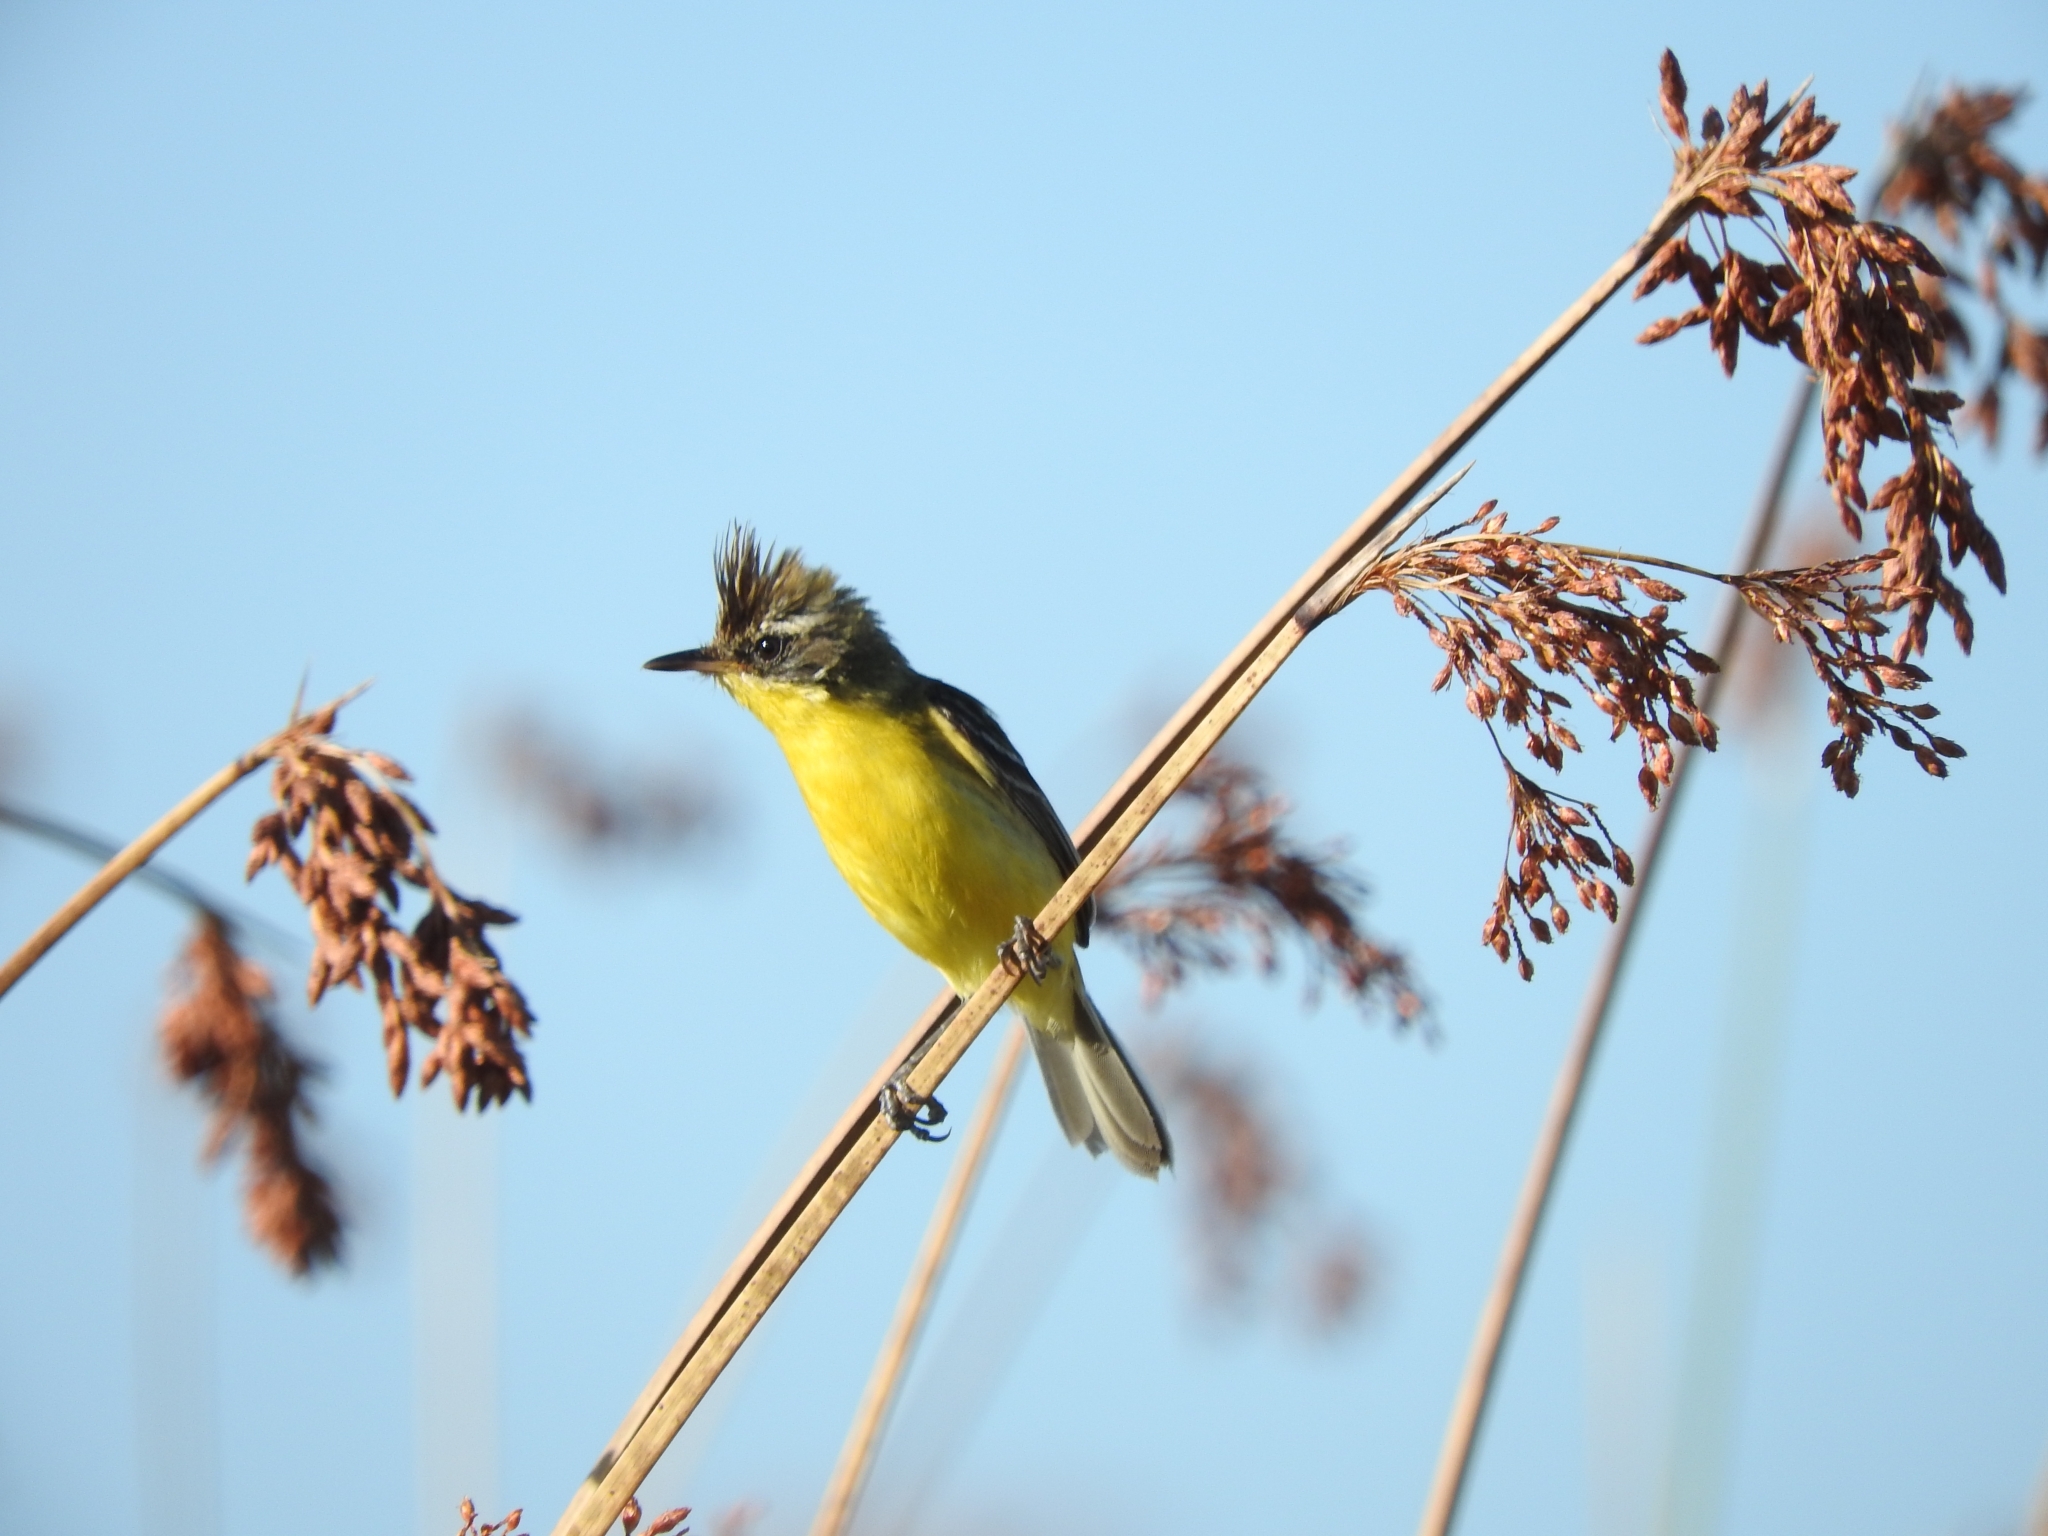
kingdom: Animalia
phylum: Chordata
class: Aves
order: Passeriformes
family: Tyrannidae
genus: Pseudocolopteryx
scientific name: Pseudocolopteryx sclateri
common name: Crested doradito
